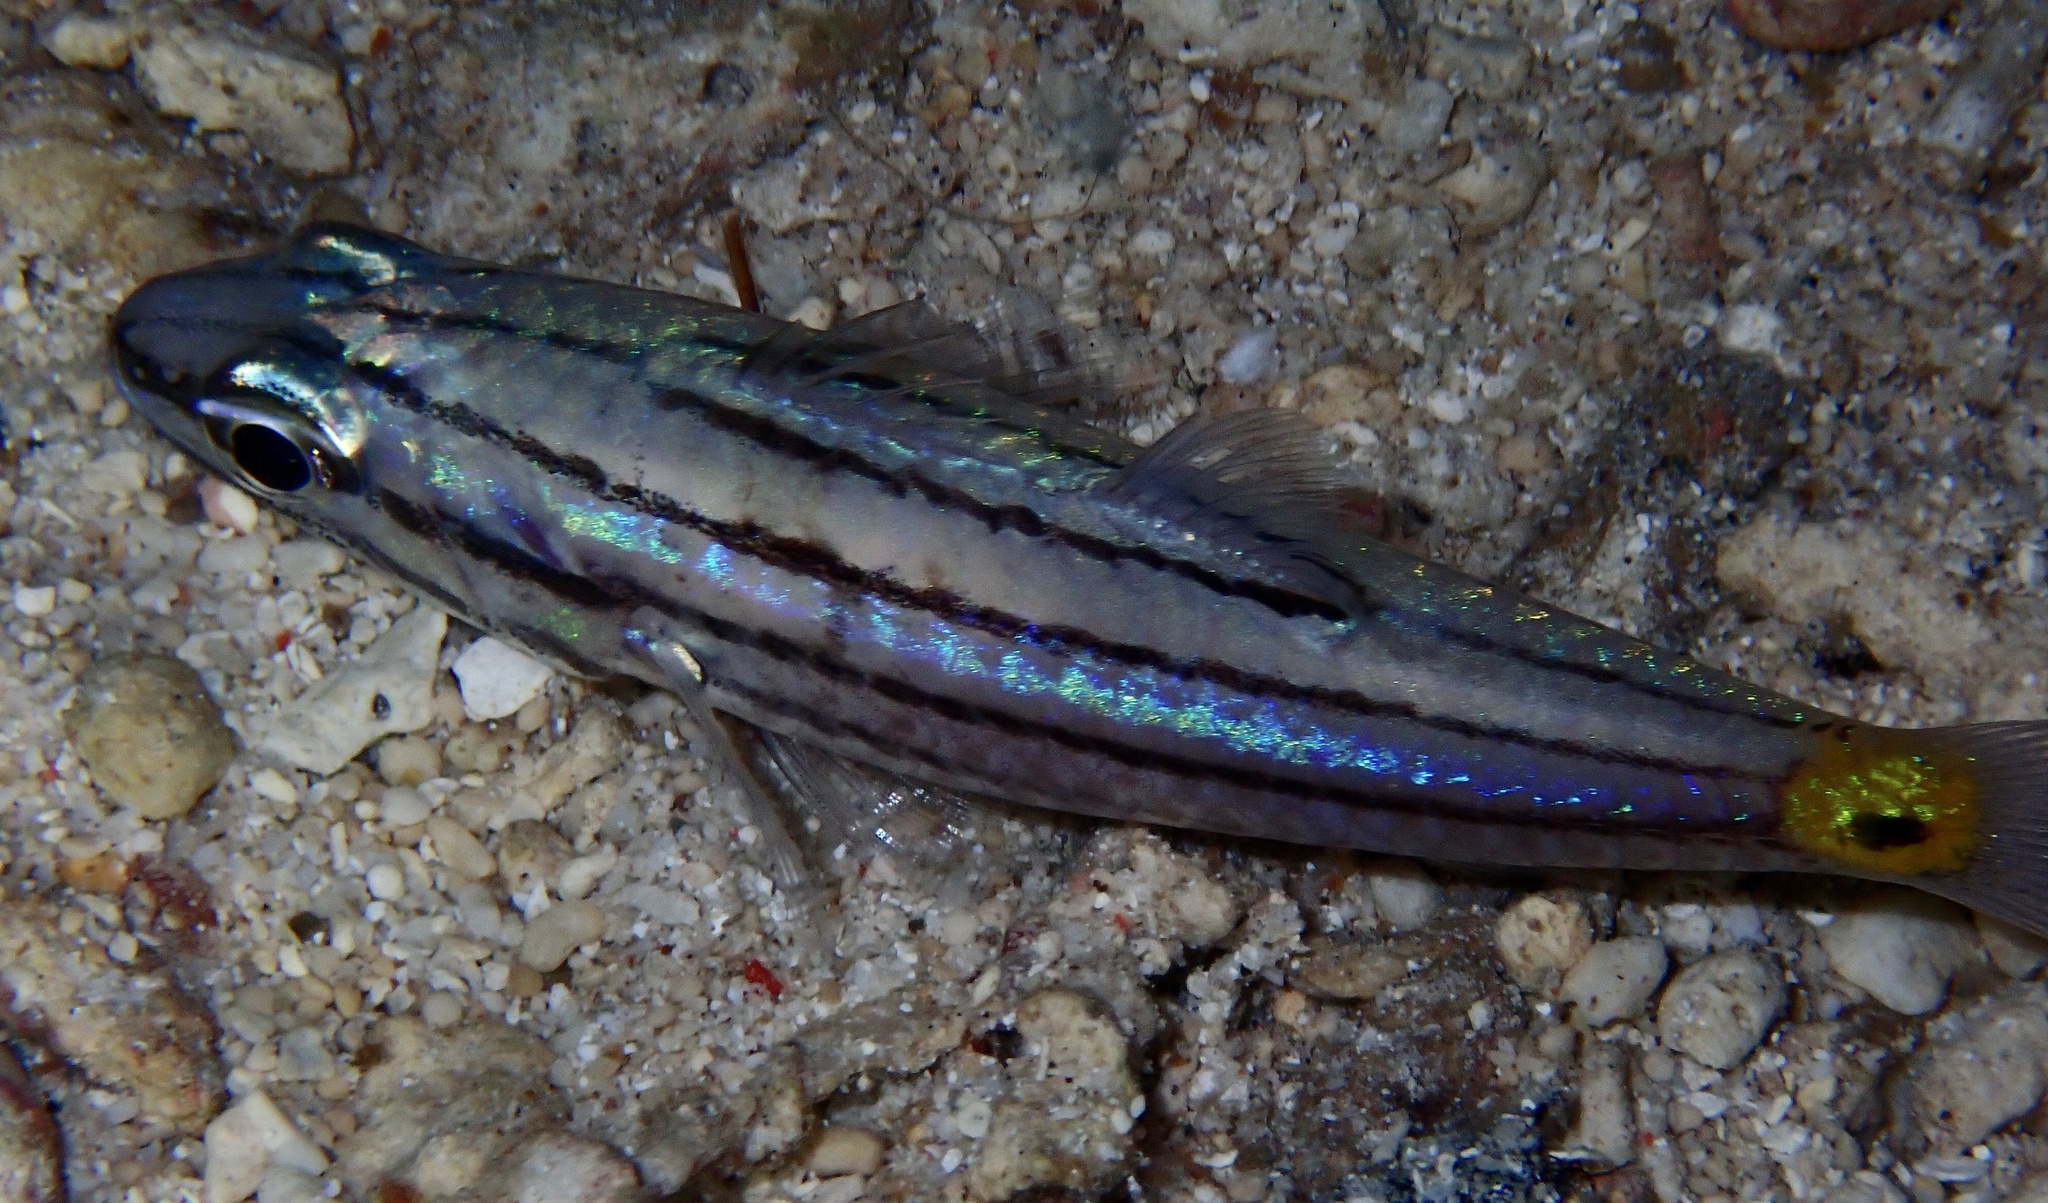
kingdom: Animalia
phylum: Chordata
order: Perciformes
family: Apogonidae
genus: Cheilodipterus
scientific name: Cheilodipterus quinquelineatus
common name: Five-lined cardinalfish
